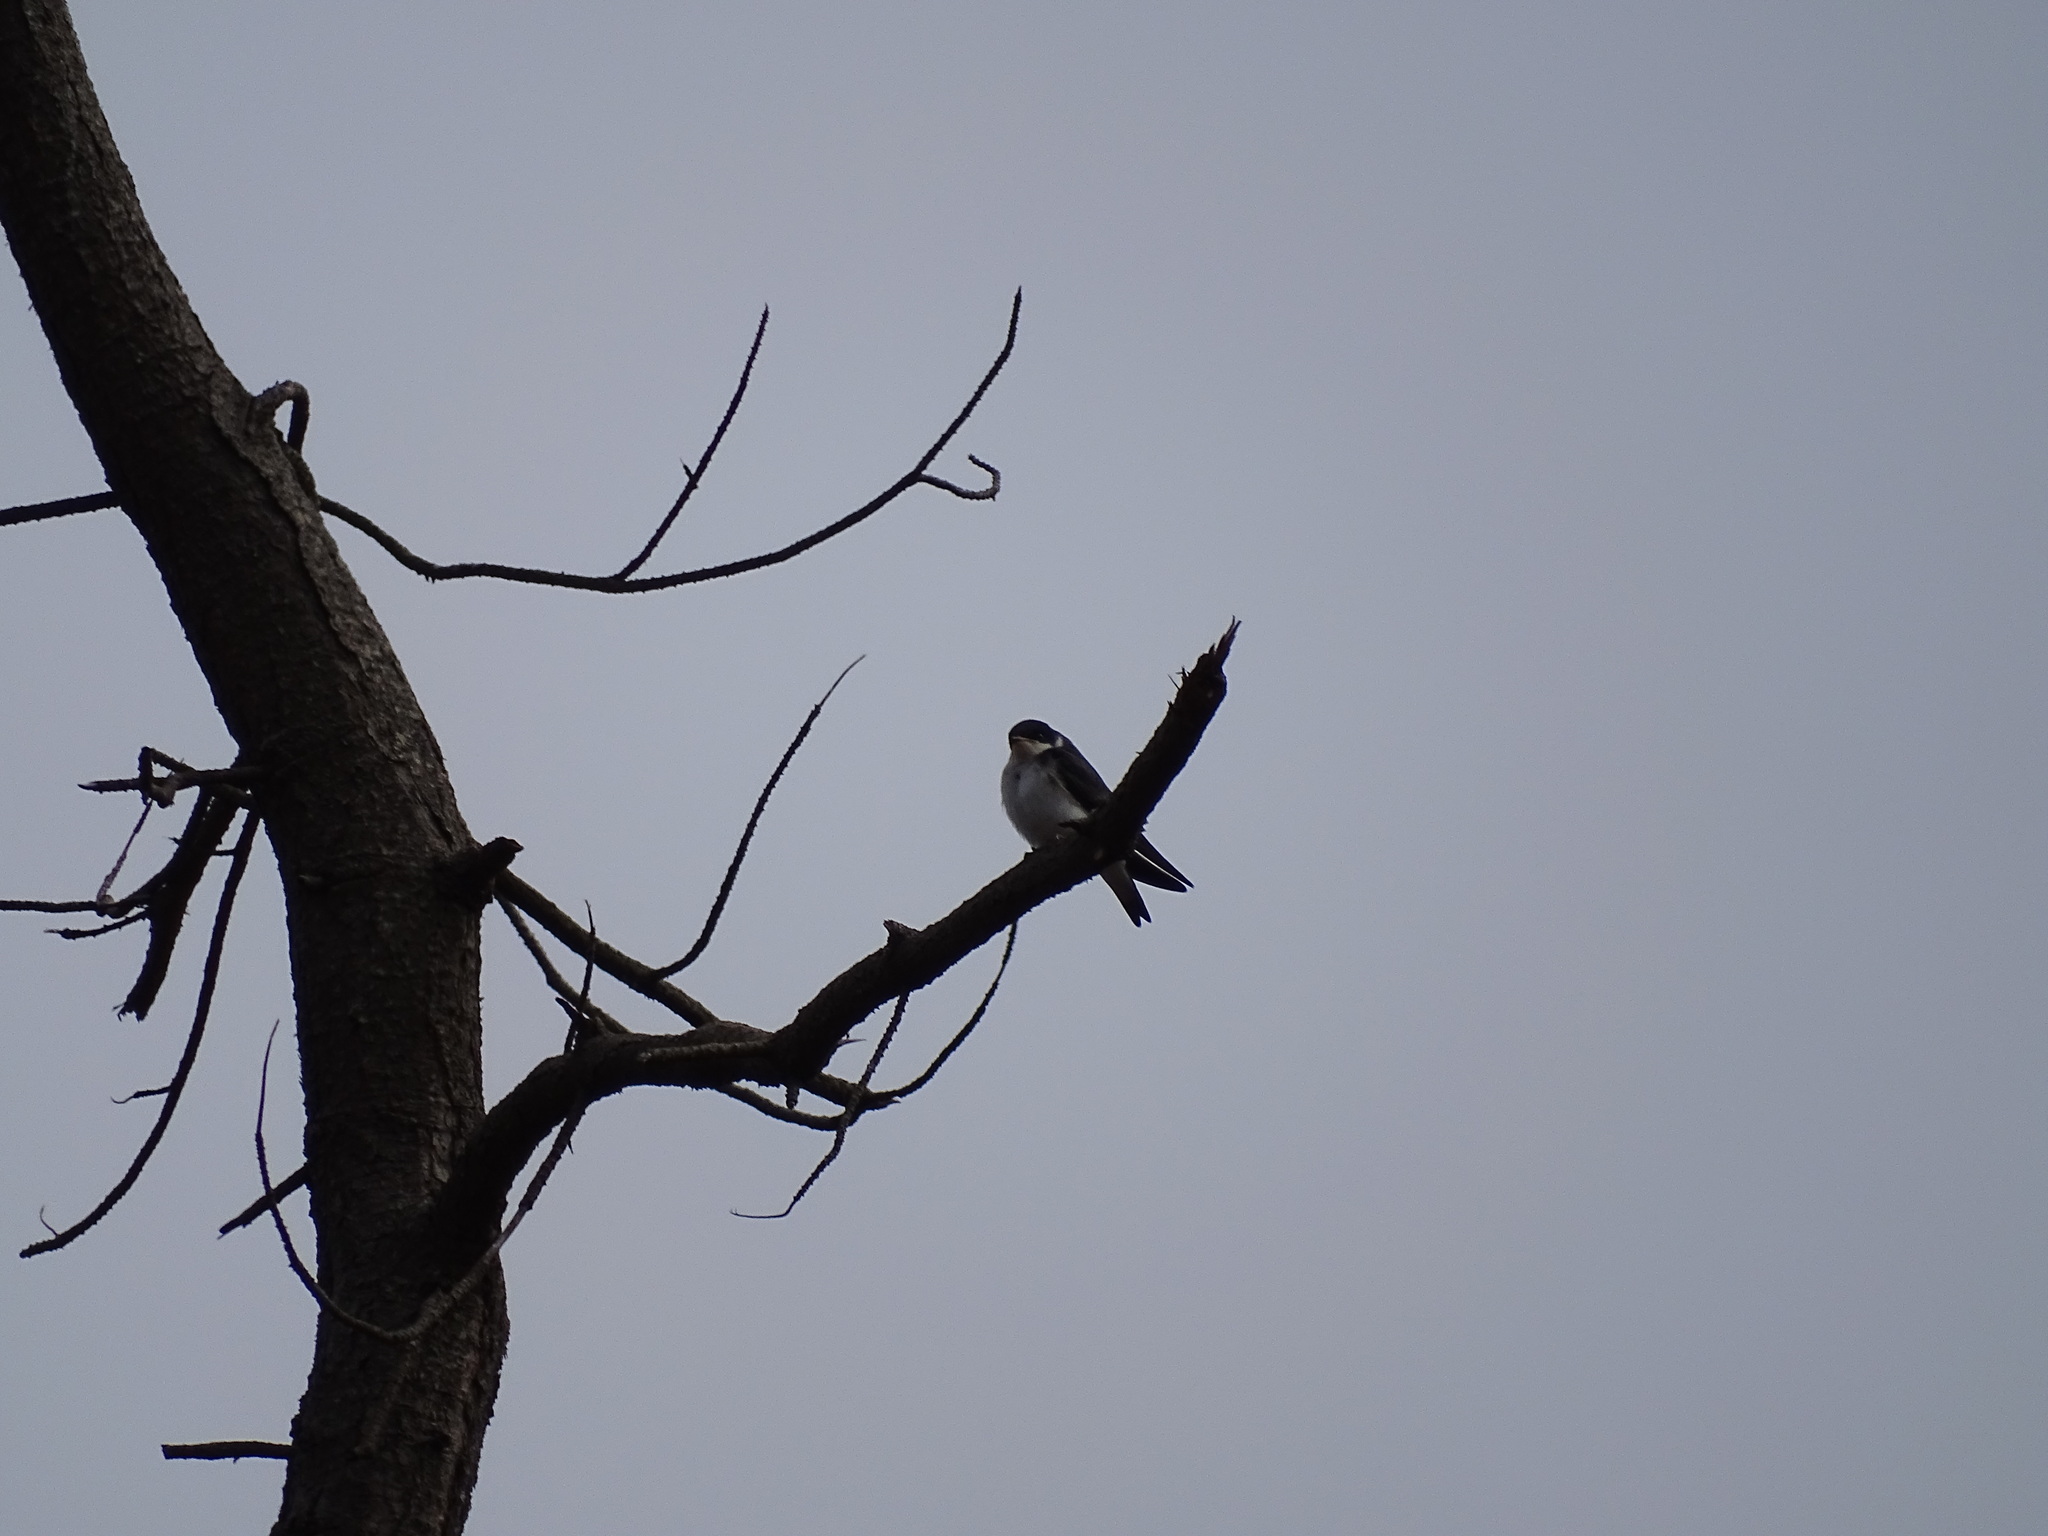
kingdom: Animalia
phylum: Chordata
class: Aves
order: Passeriformes
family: Hirundinidae
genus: Tachycineta
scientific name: Tachycineta leucopyga
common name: Chilean swallow
